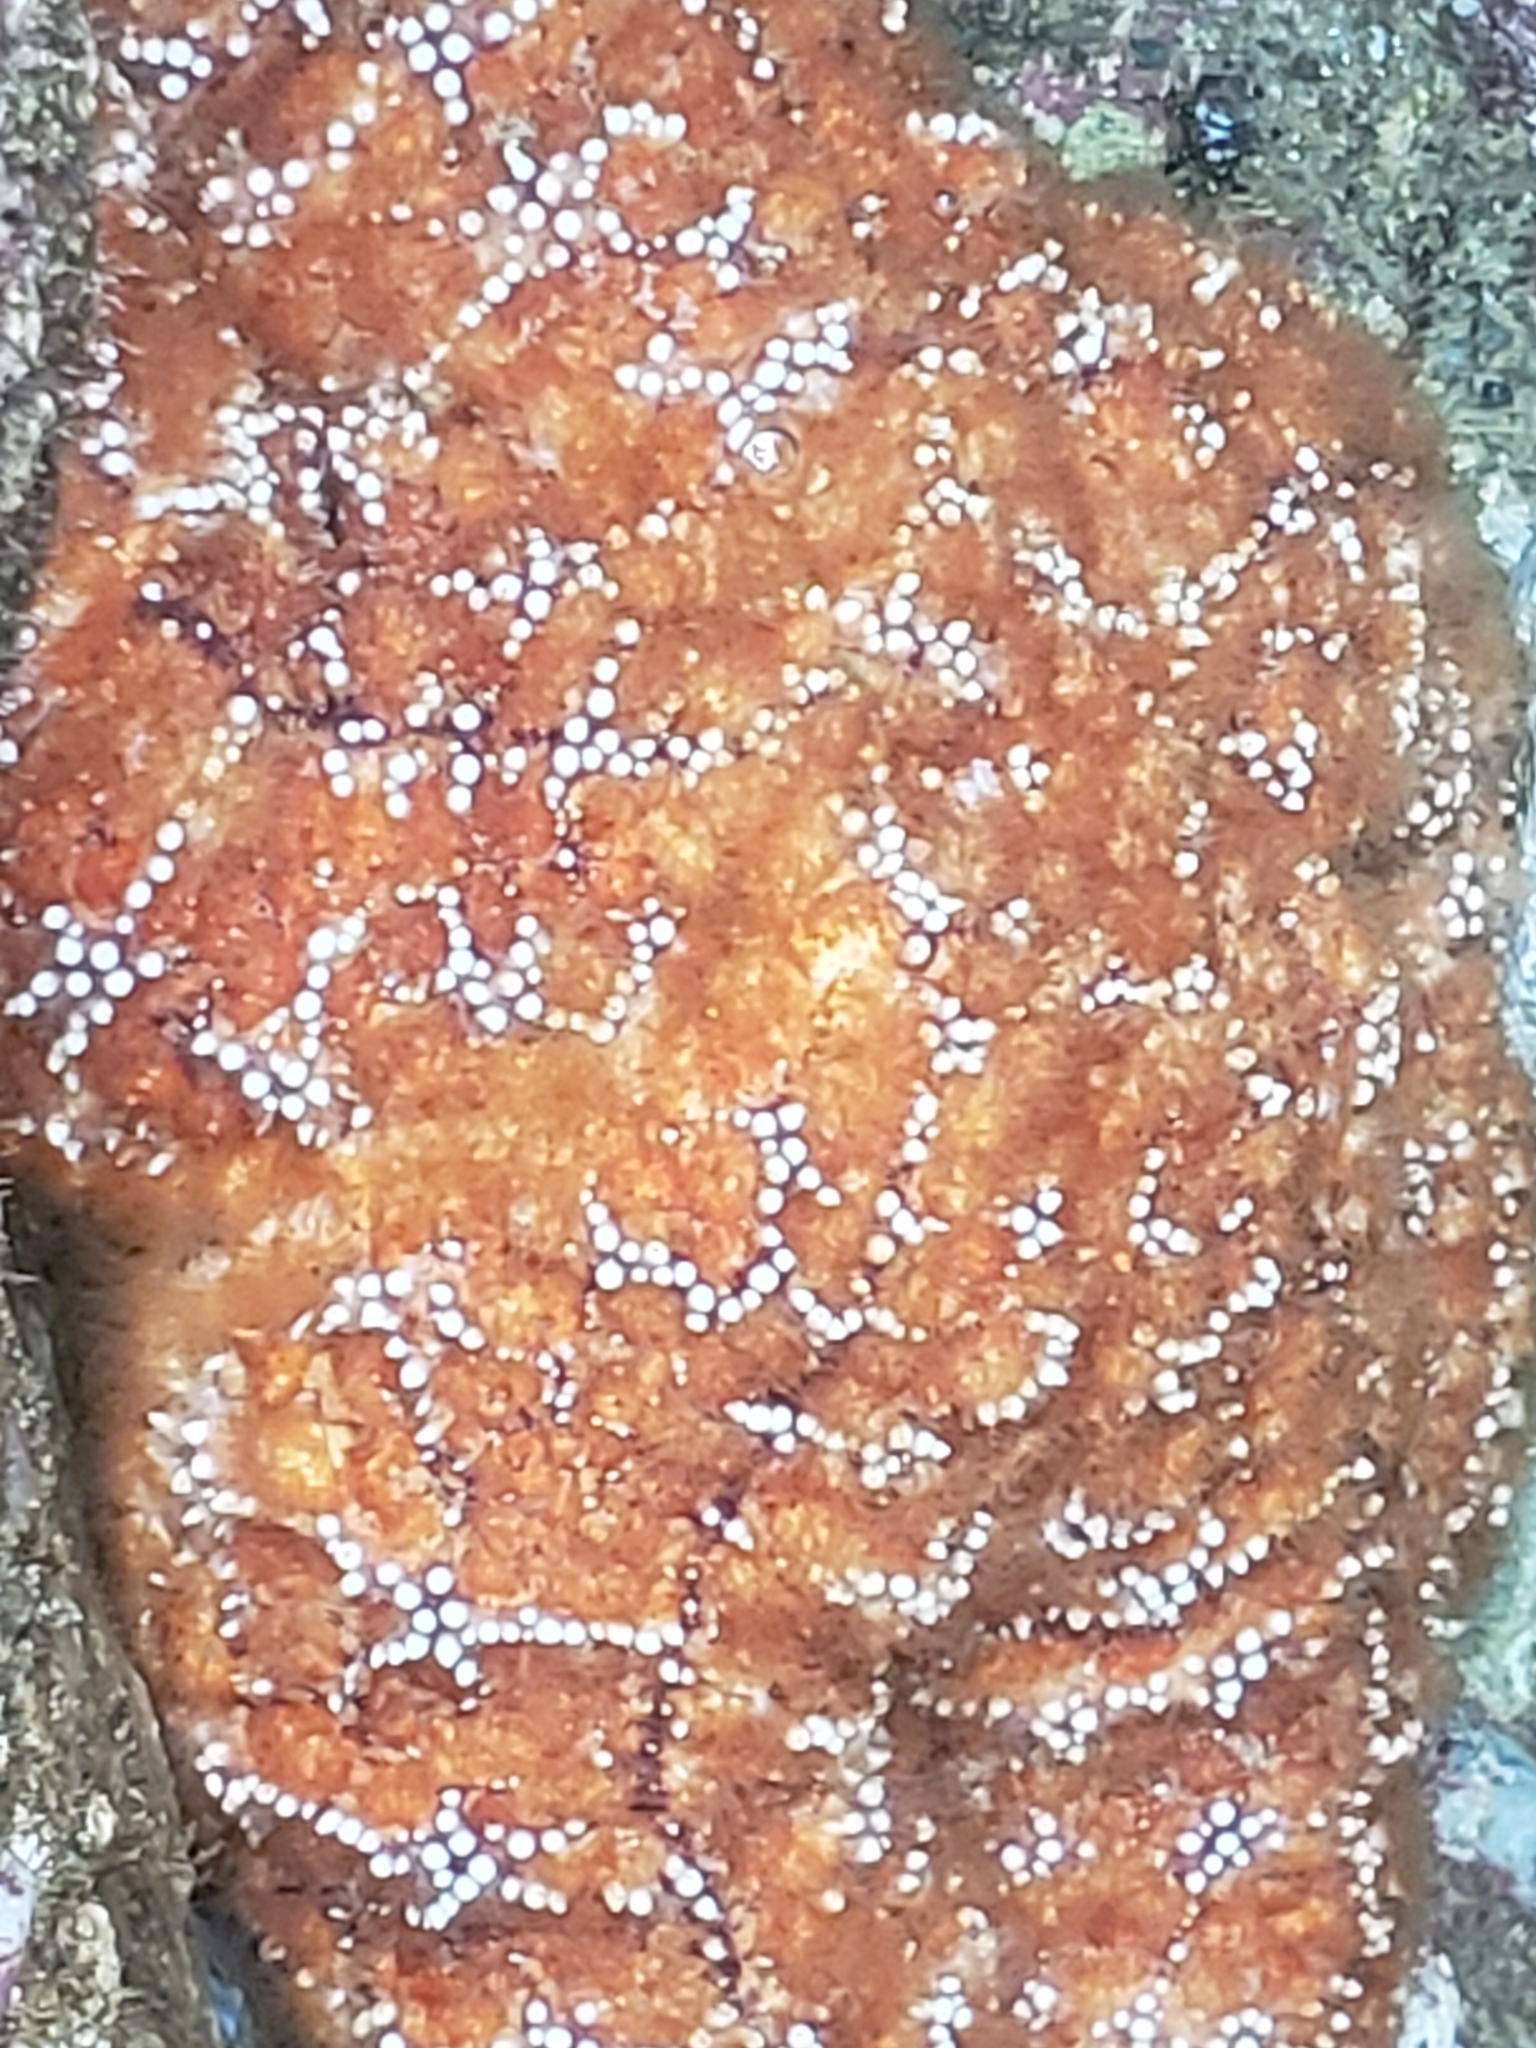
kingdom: Animalia
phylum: Echinodermata
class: Asteroidea
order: Forcipulatida
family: Asteriidae
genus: Pisaster
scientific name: Pisaster ochraceus
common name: Ochre stars
